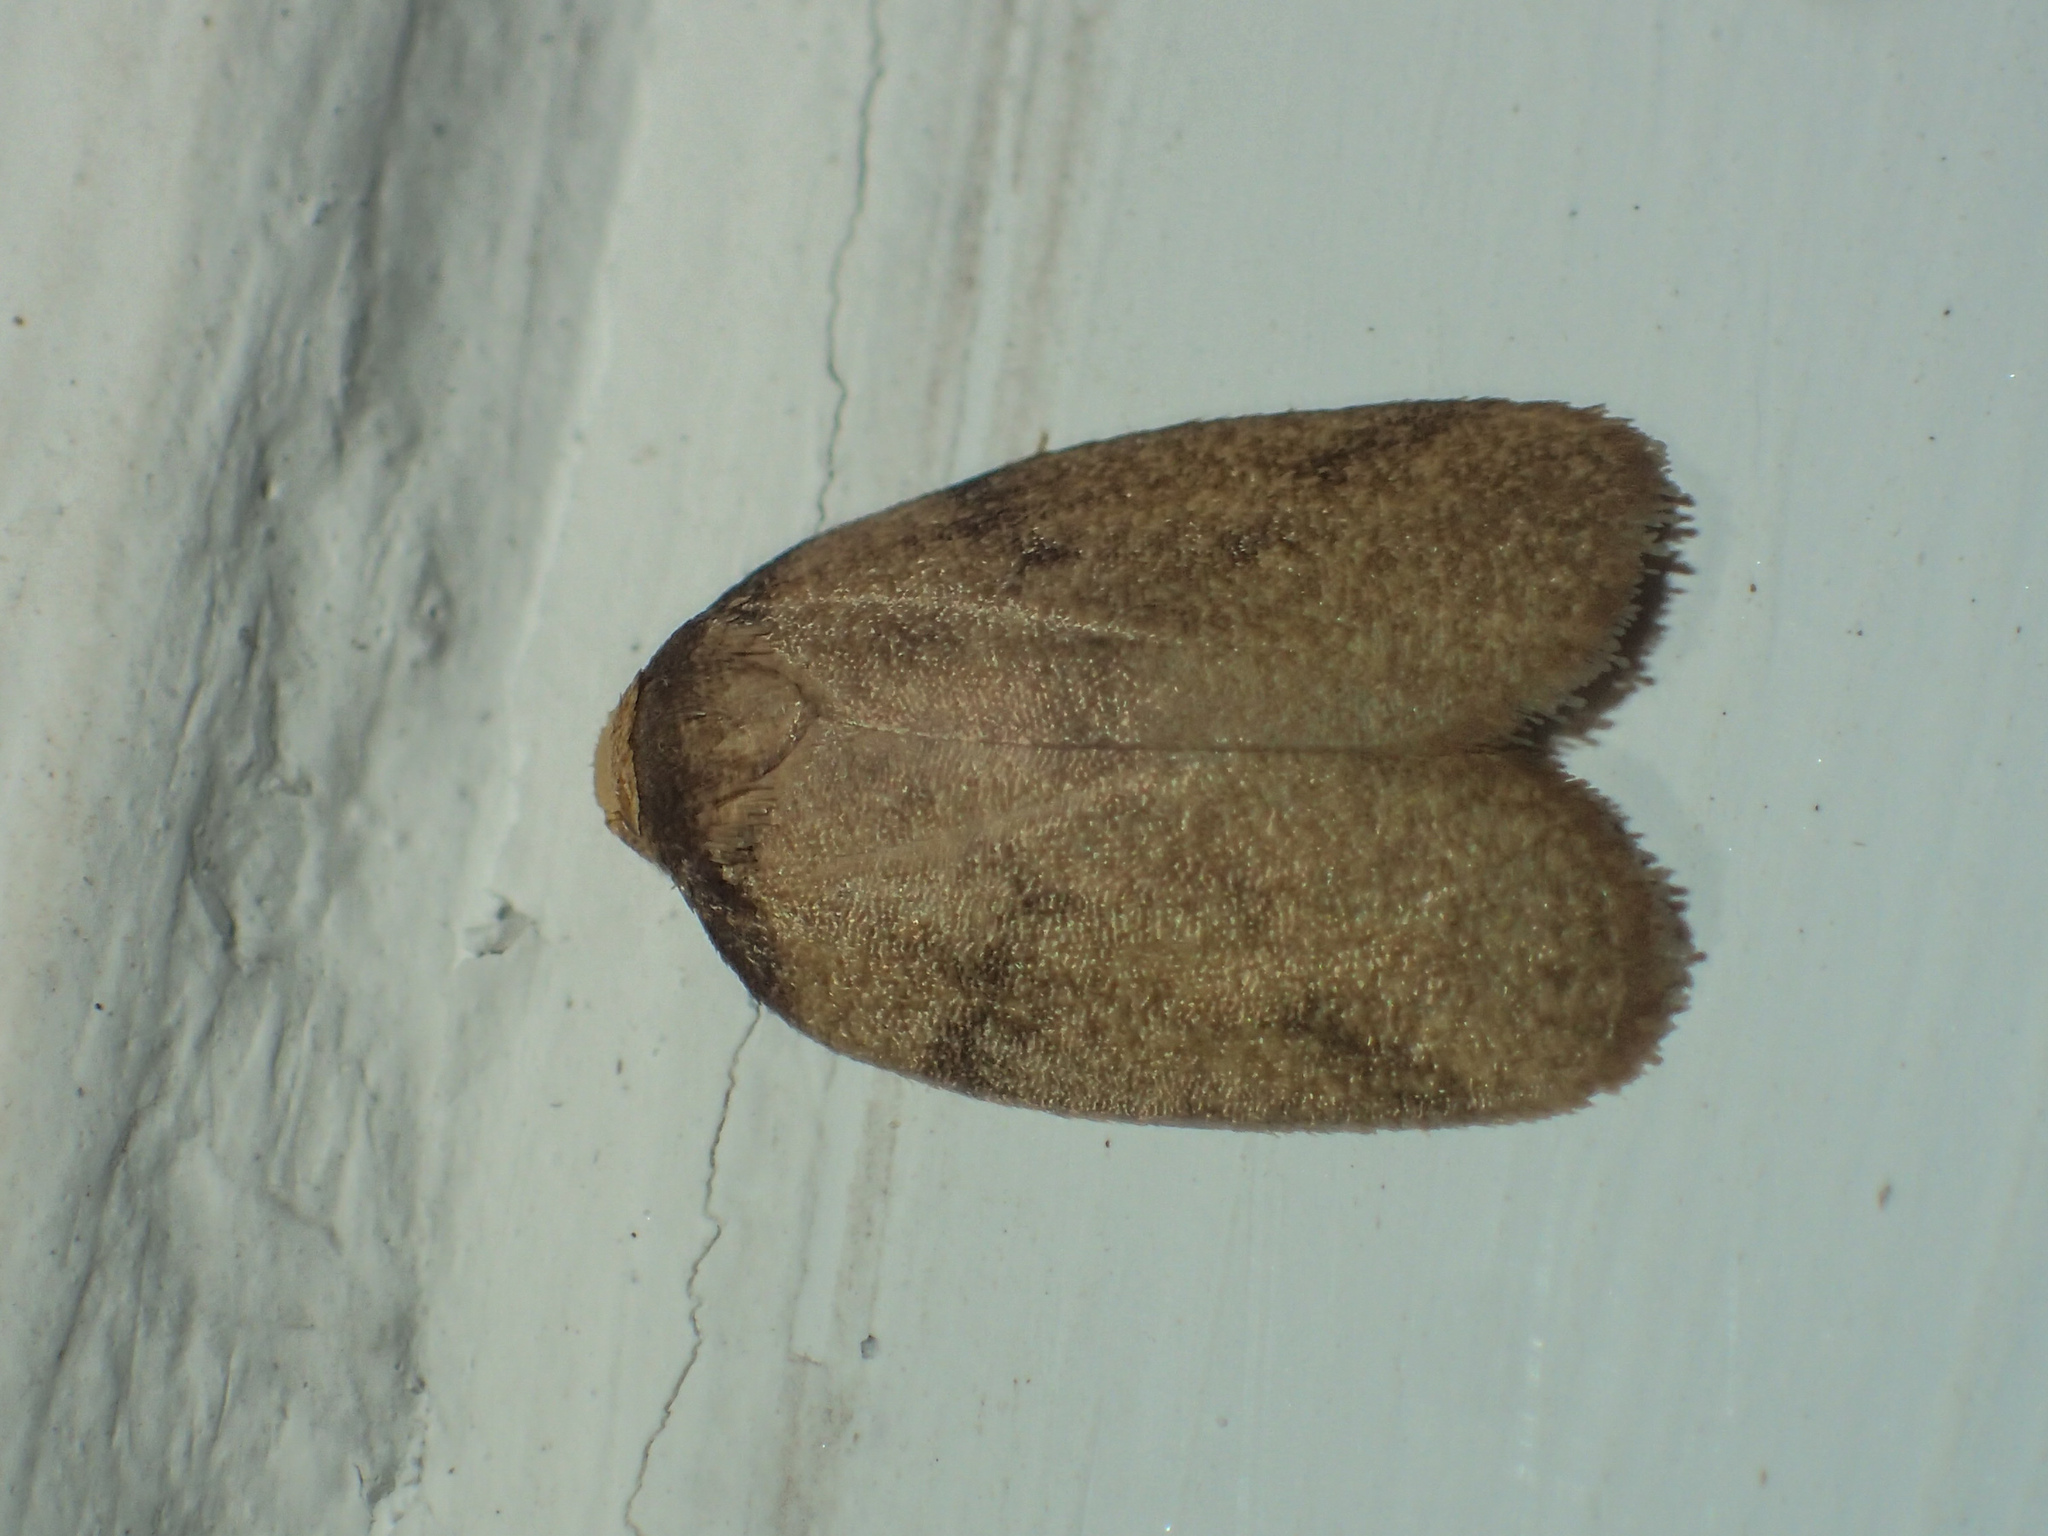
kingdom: Animalia
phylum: Arthropoda
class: Insecta
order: Lepidoptera
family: Erebidae
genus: Neoeugoa
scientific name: Neoeugoa humerana
